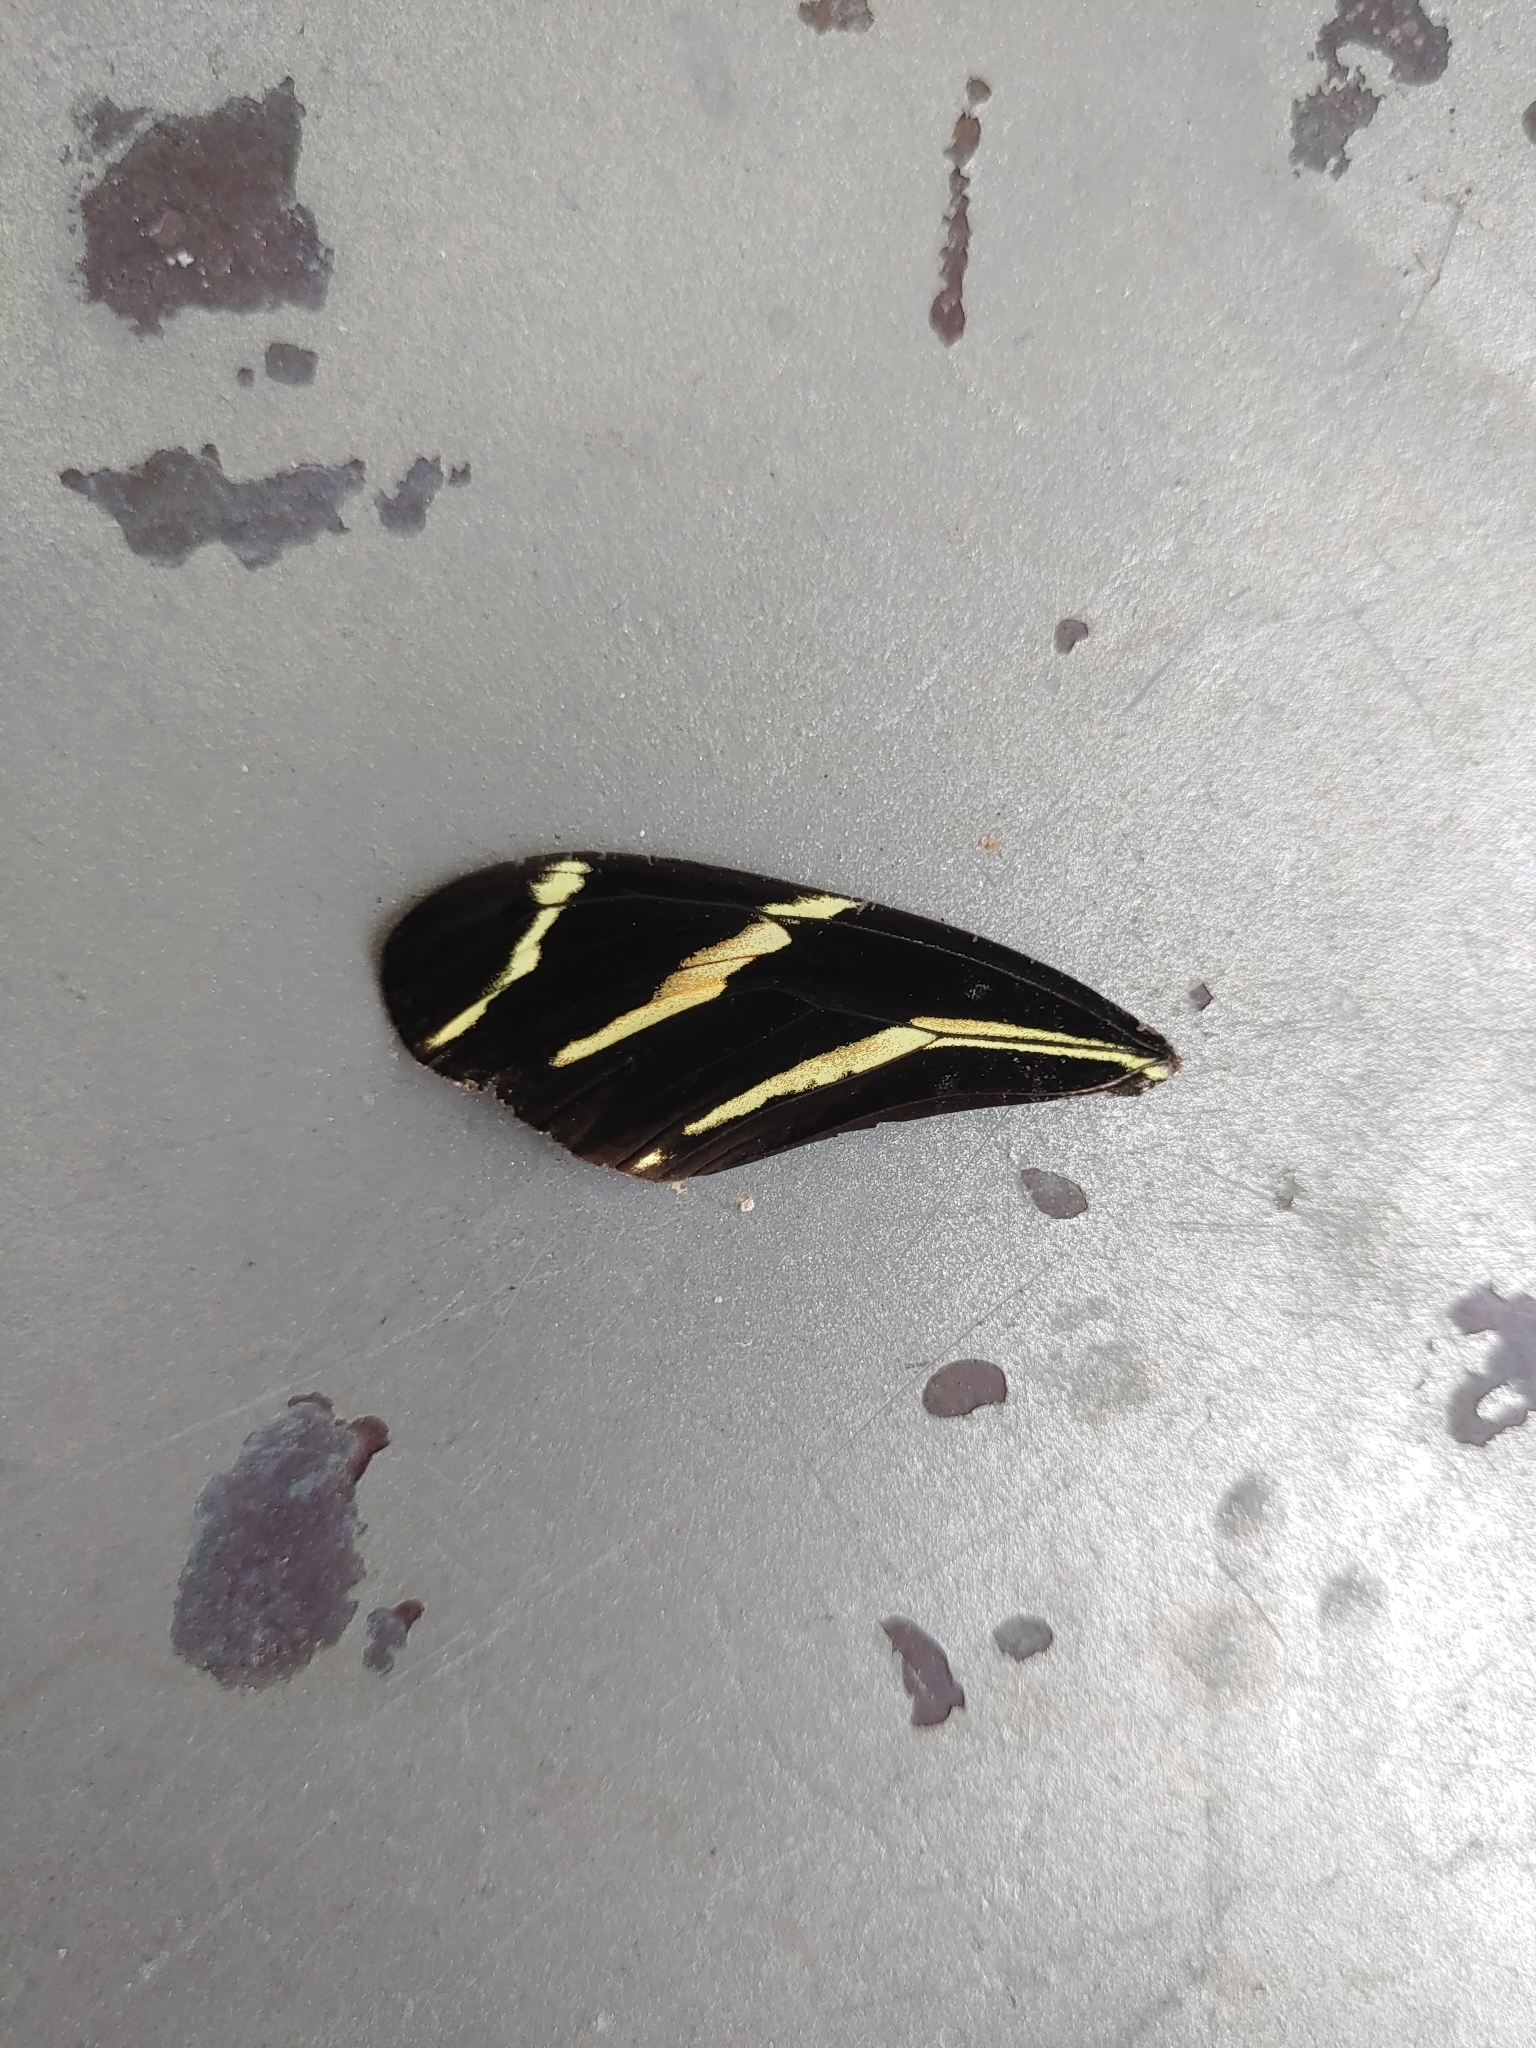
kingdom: Animalia
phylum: Arthropoda
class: Insecta
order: Lepidoptera
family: Nymphalidae
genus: Heliconius
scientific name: Heliconius charithonia
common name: Zebra long wing
